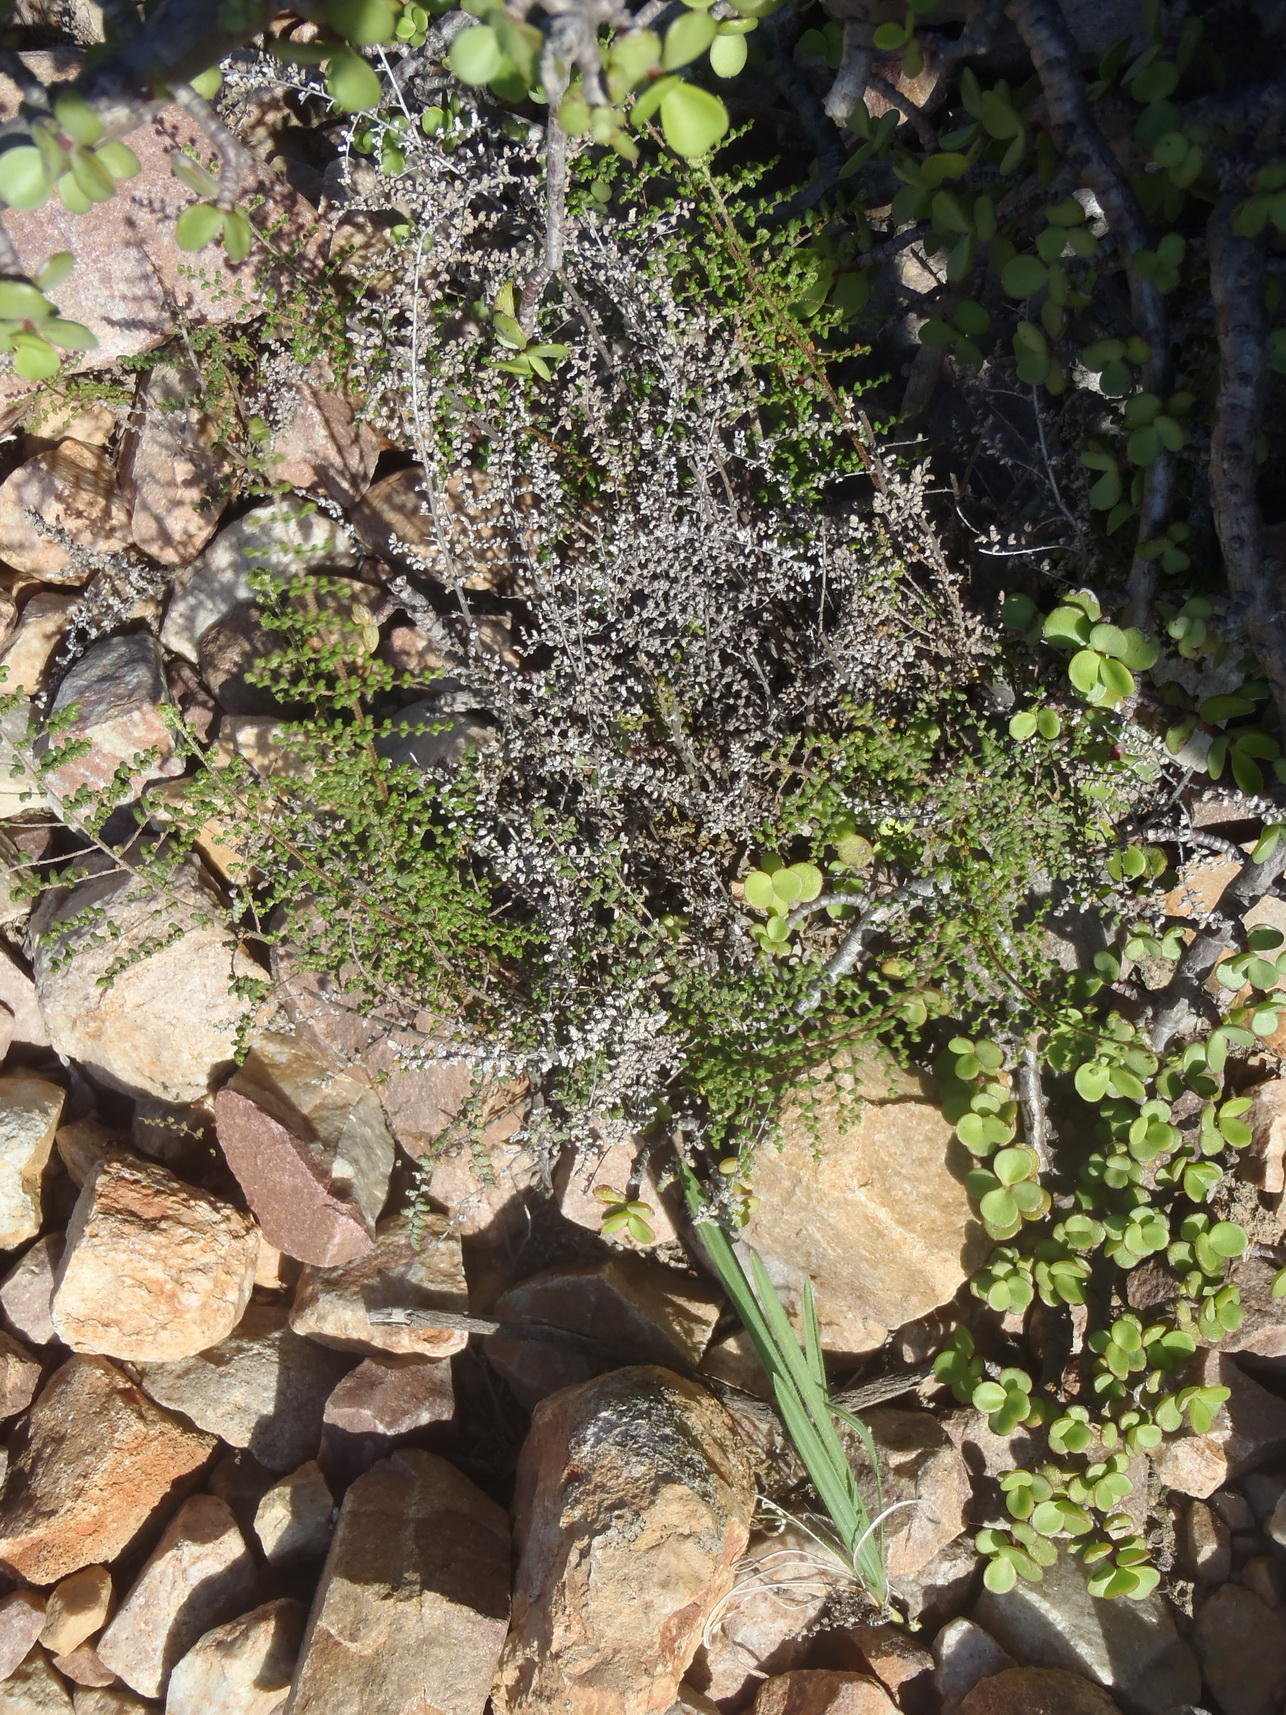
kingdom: Plantae
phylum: Tracheophyta
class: Polypodiopsida
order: Polypodiales
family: Pteridaceae
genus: Cheilanthes
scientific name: Cheilanthes parviloba
